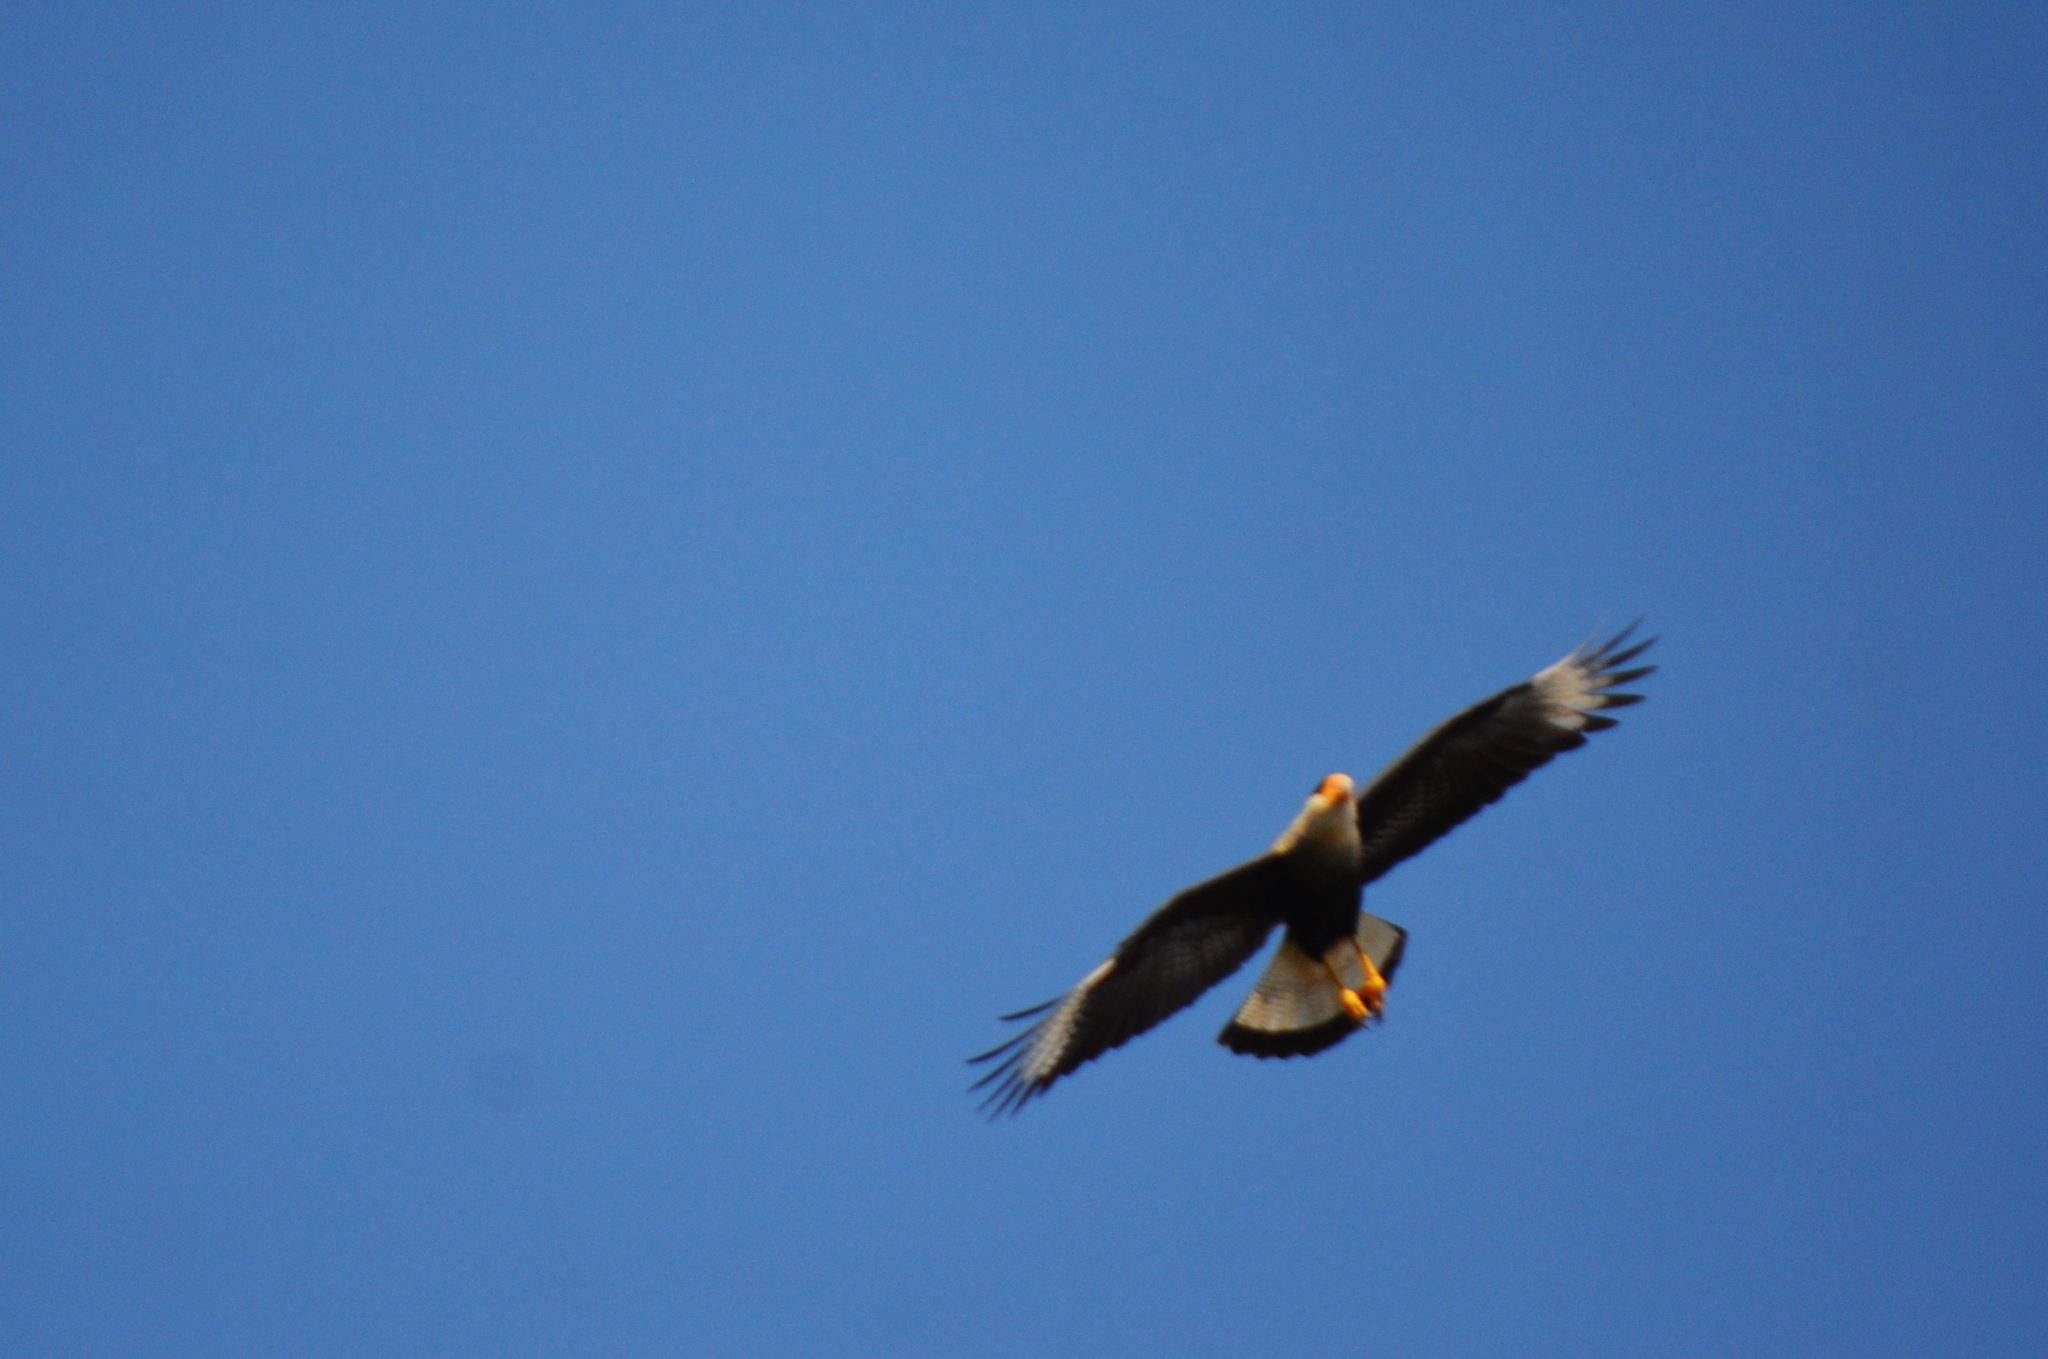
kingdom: Animalia
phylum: Chordata
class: Aves
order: Falconiformes
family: Falconidae
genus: Caracara
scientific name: Caracara plancus
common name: Southern caracara
